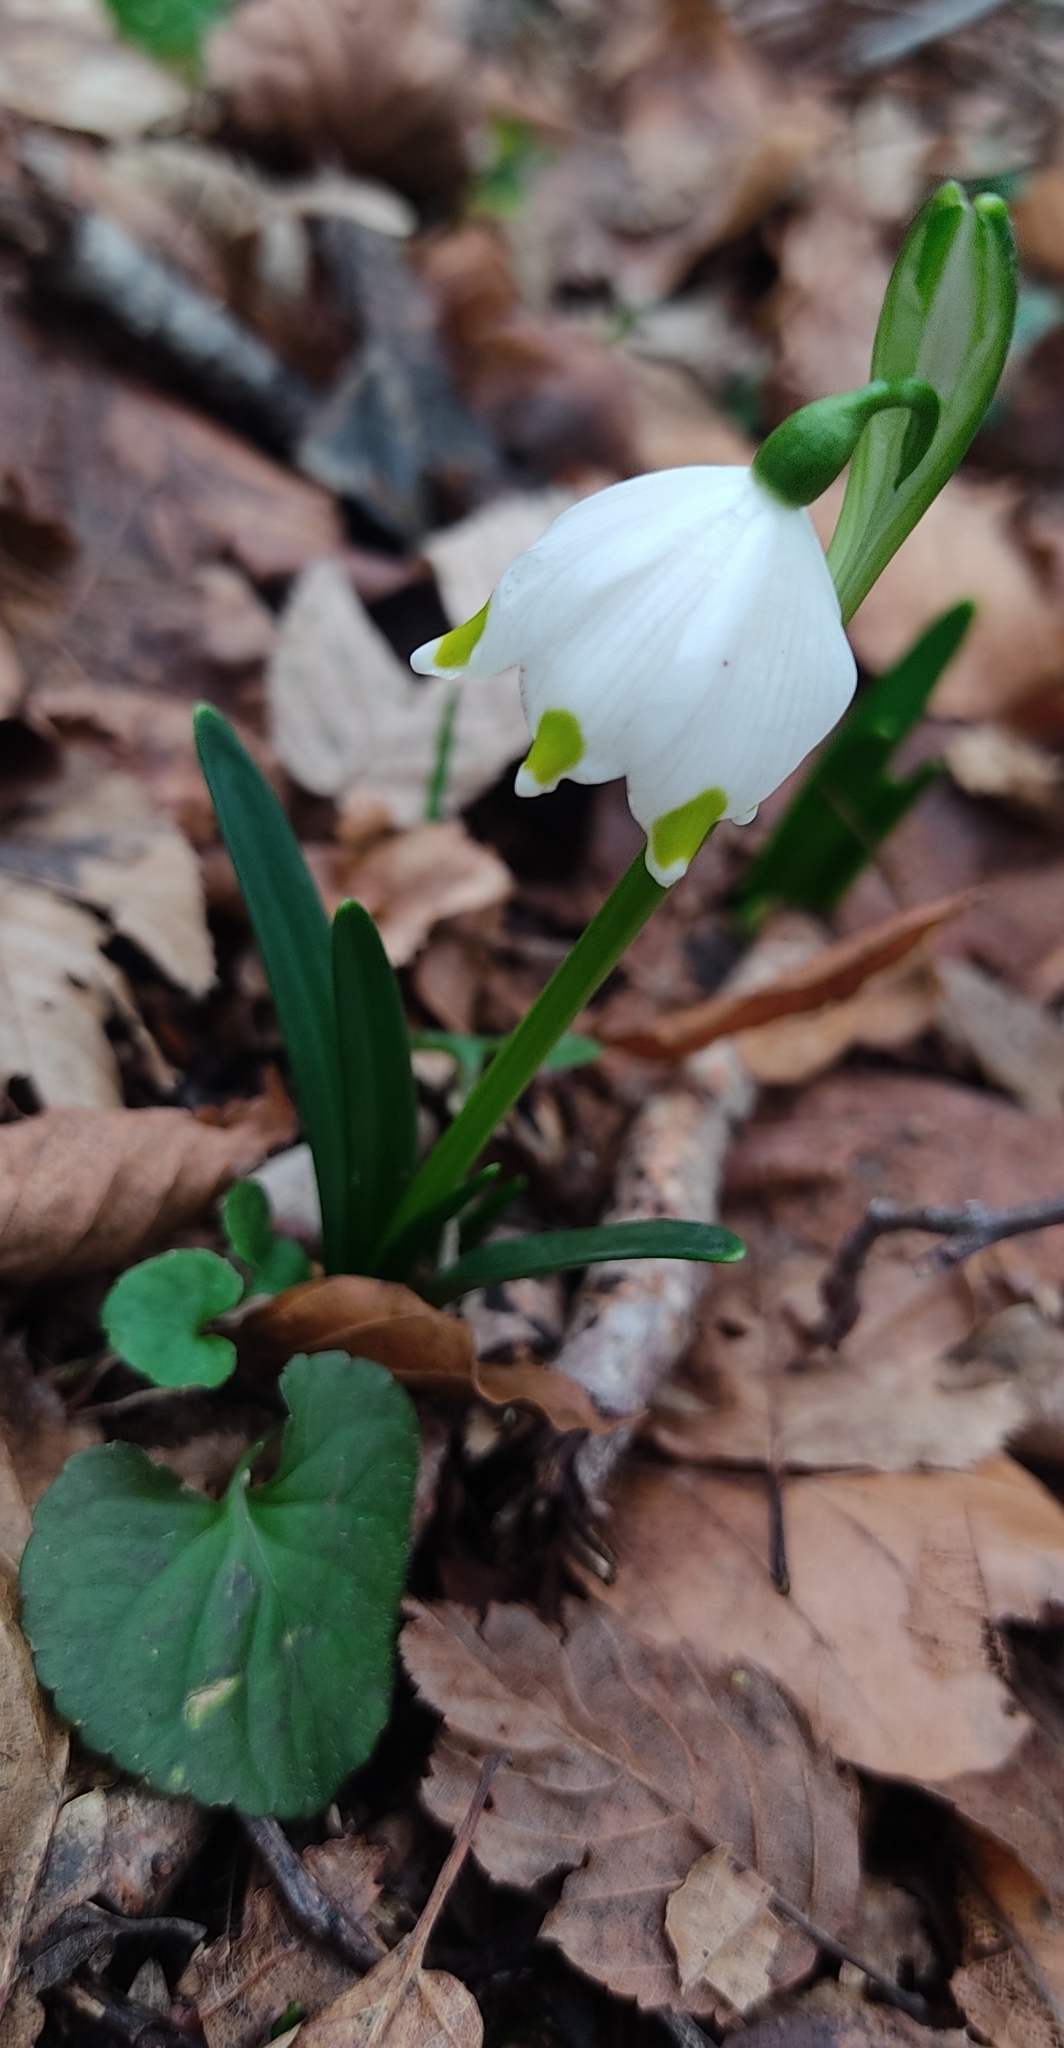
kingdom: Plantae
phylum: Tracheophyta
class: Liliopsida
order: Asparagales
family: Amaryllidaceae
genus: Leucojum
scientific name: Leucojum vernum
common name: Spring snowflake
